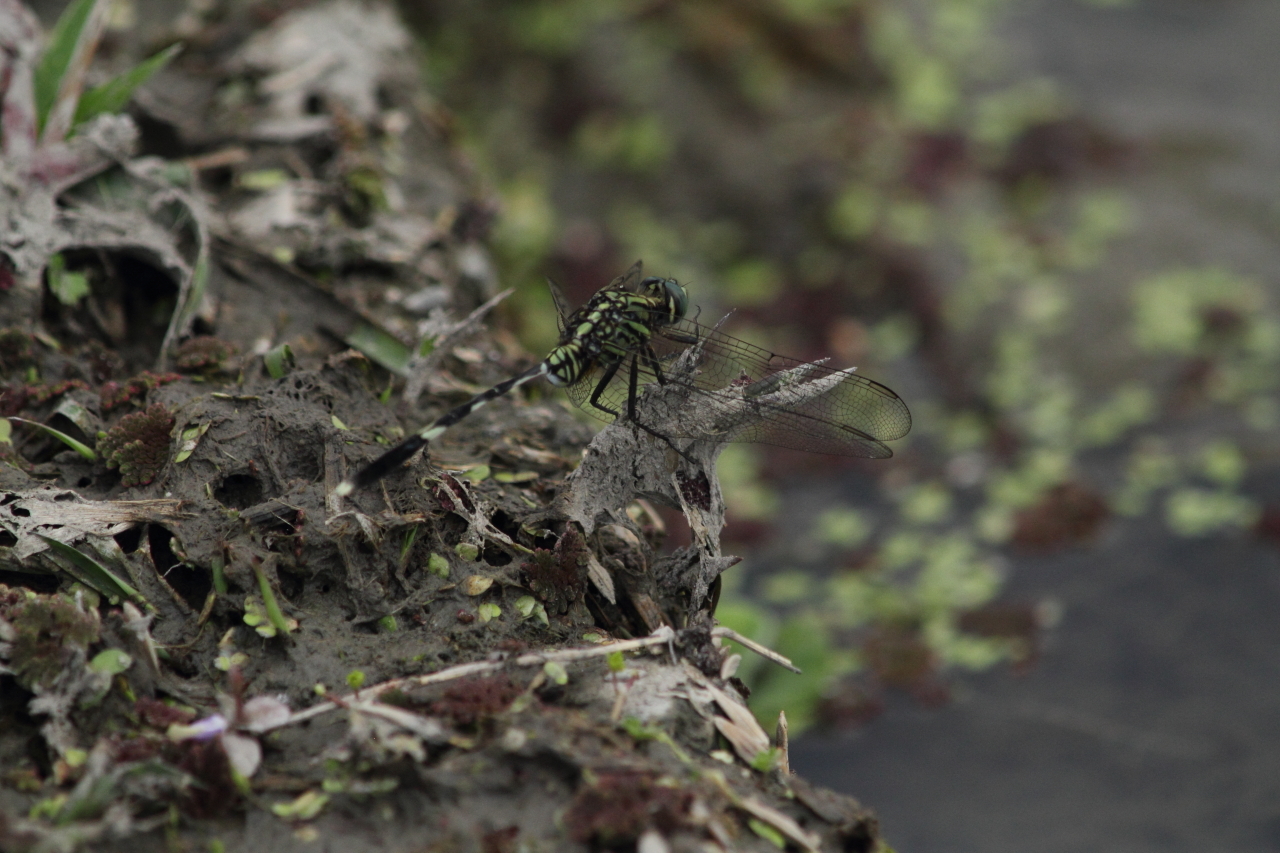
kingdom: Animalia
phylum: Arthropoda
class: Insecta
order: Odonata
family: Libellulidae
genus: Orthetrum
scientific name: Orthetrum sabina
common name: Slender skimmer
